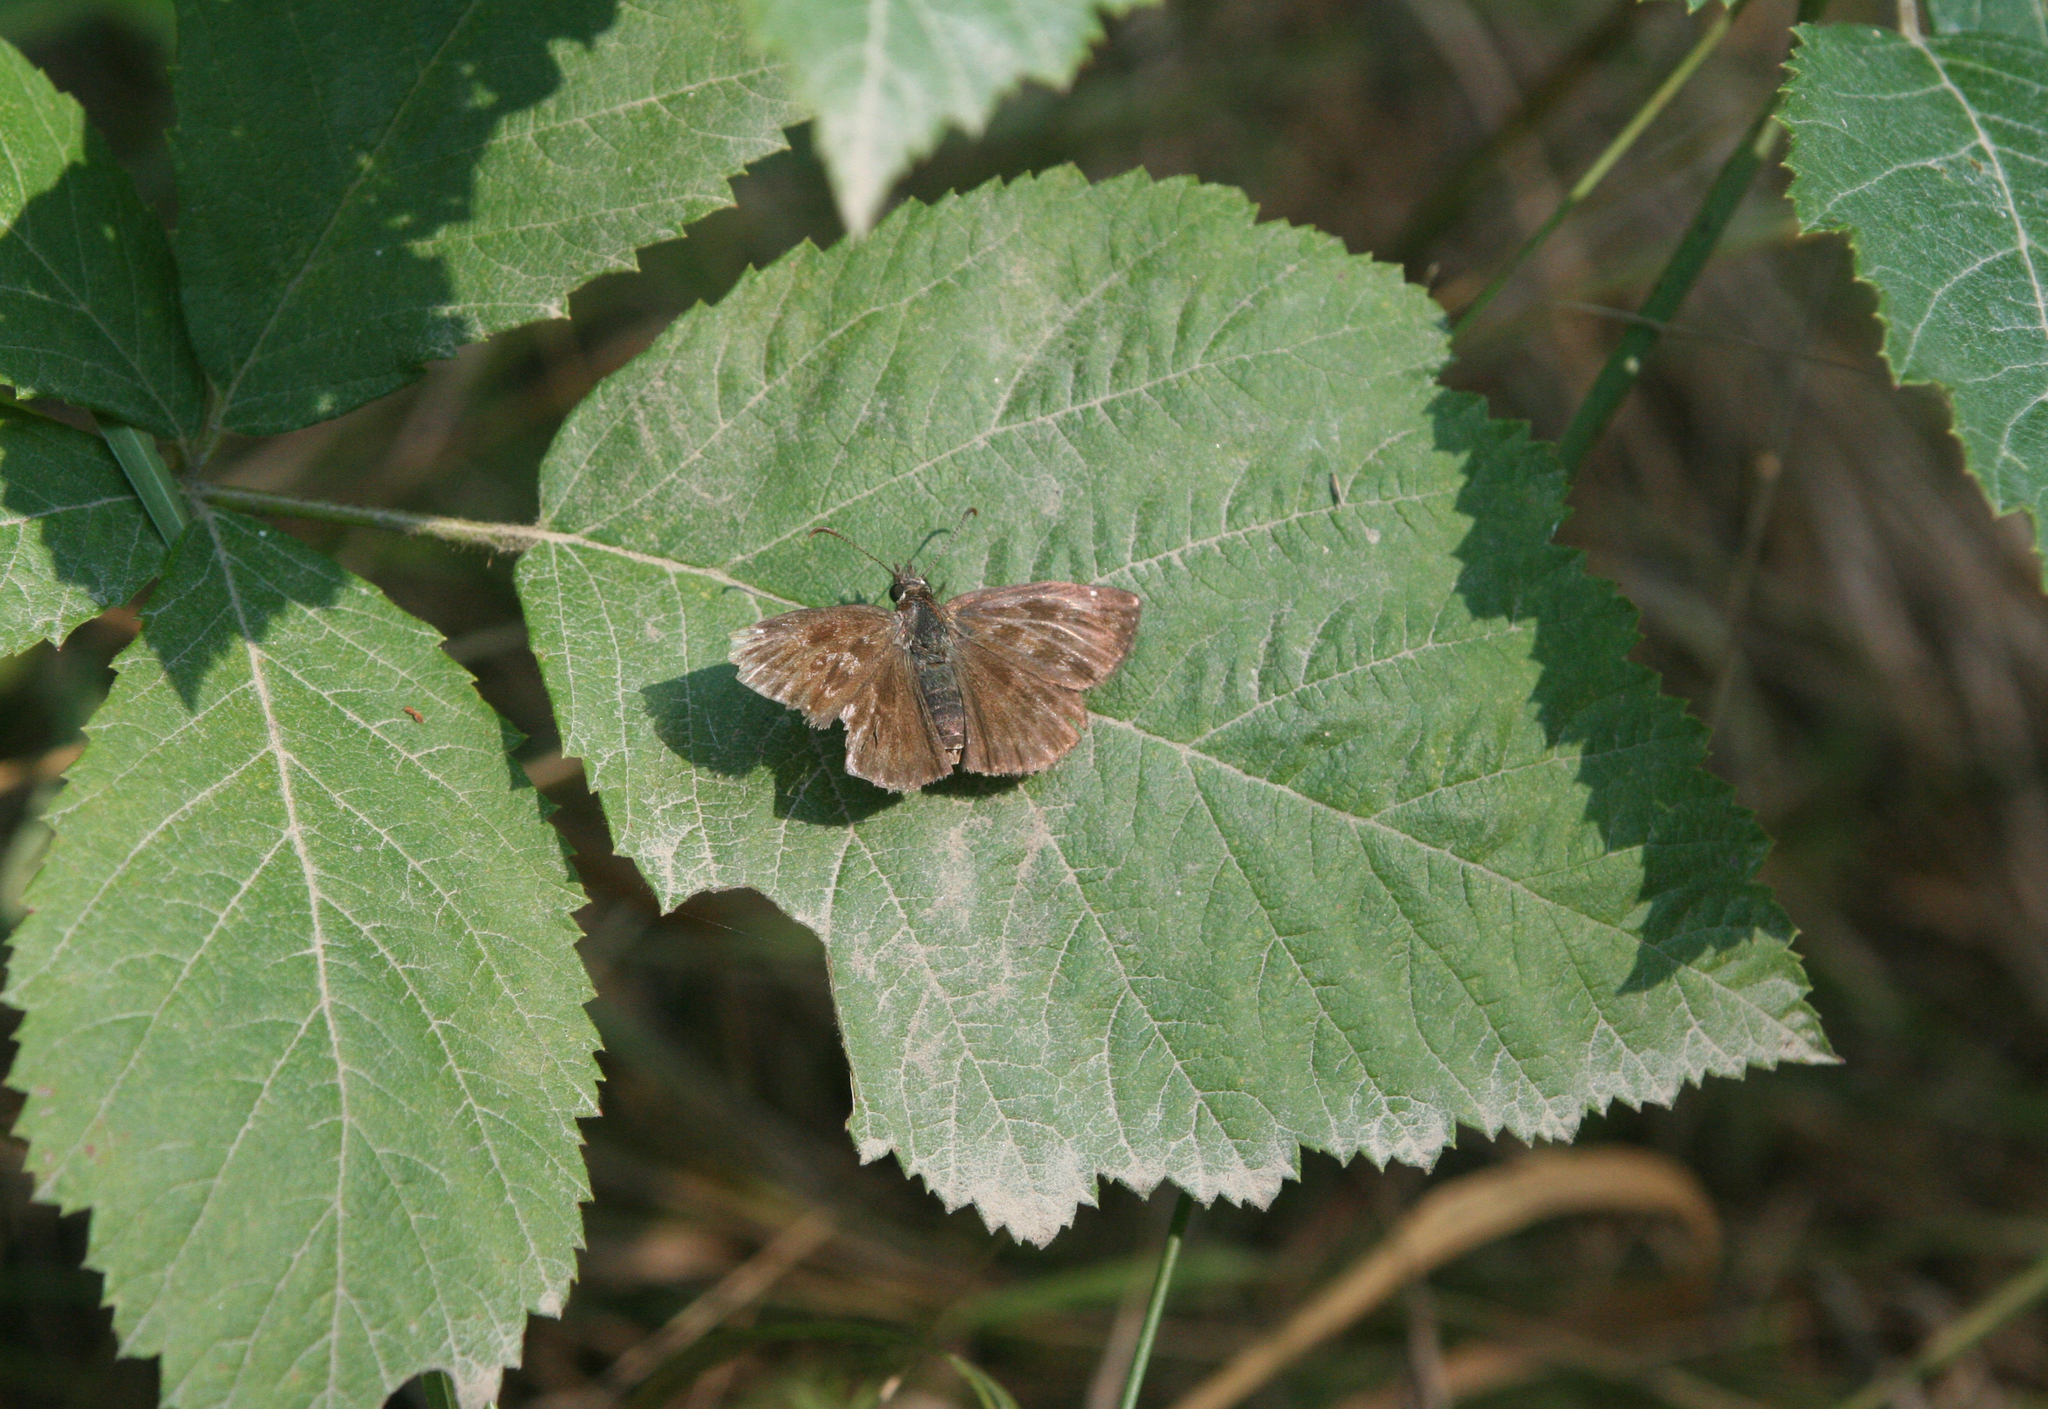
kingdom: Animalia
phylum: Arthropoda
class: Insecta
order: Lepidoptera
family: Hesperiidae
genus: Erynnis
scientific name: Erynnis tages
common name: Dingy skipper
